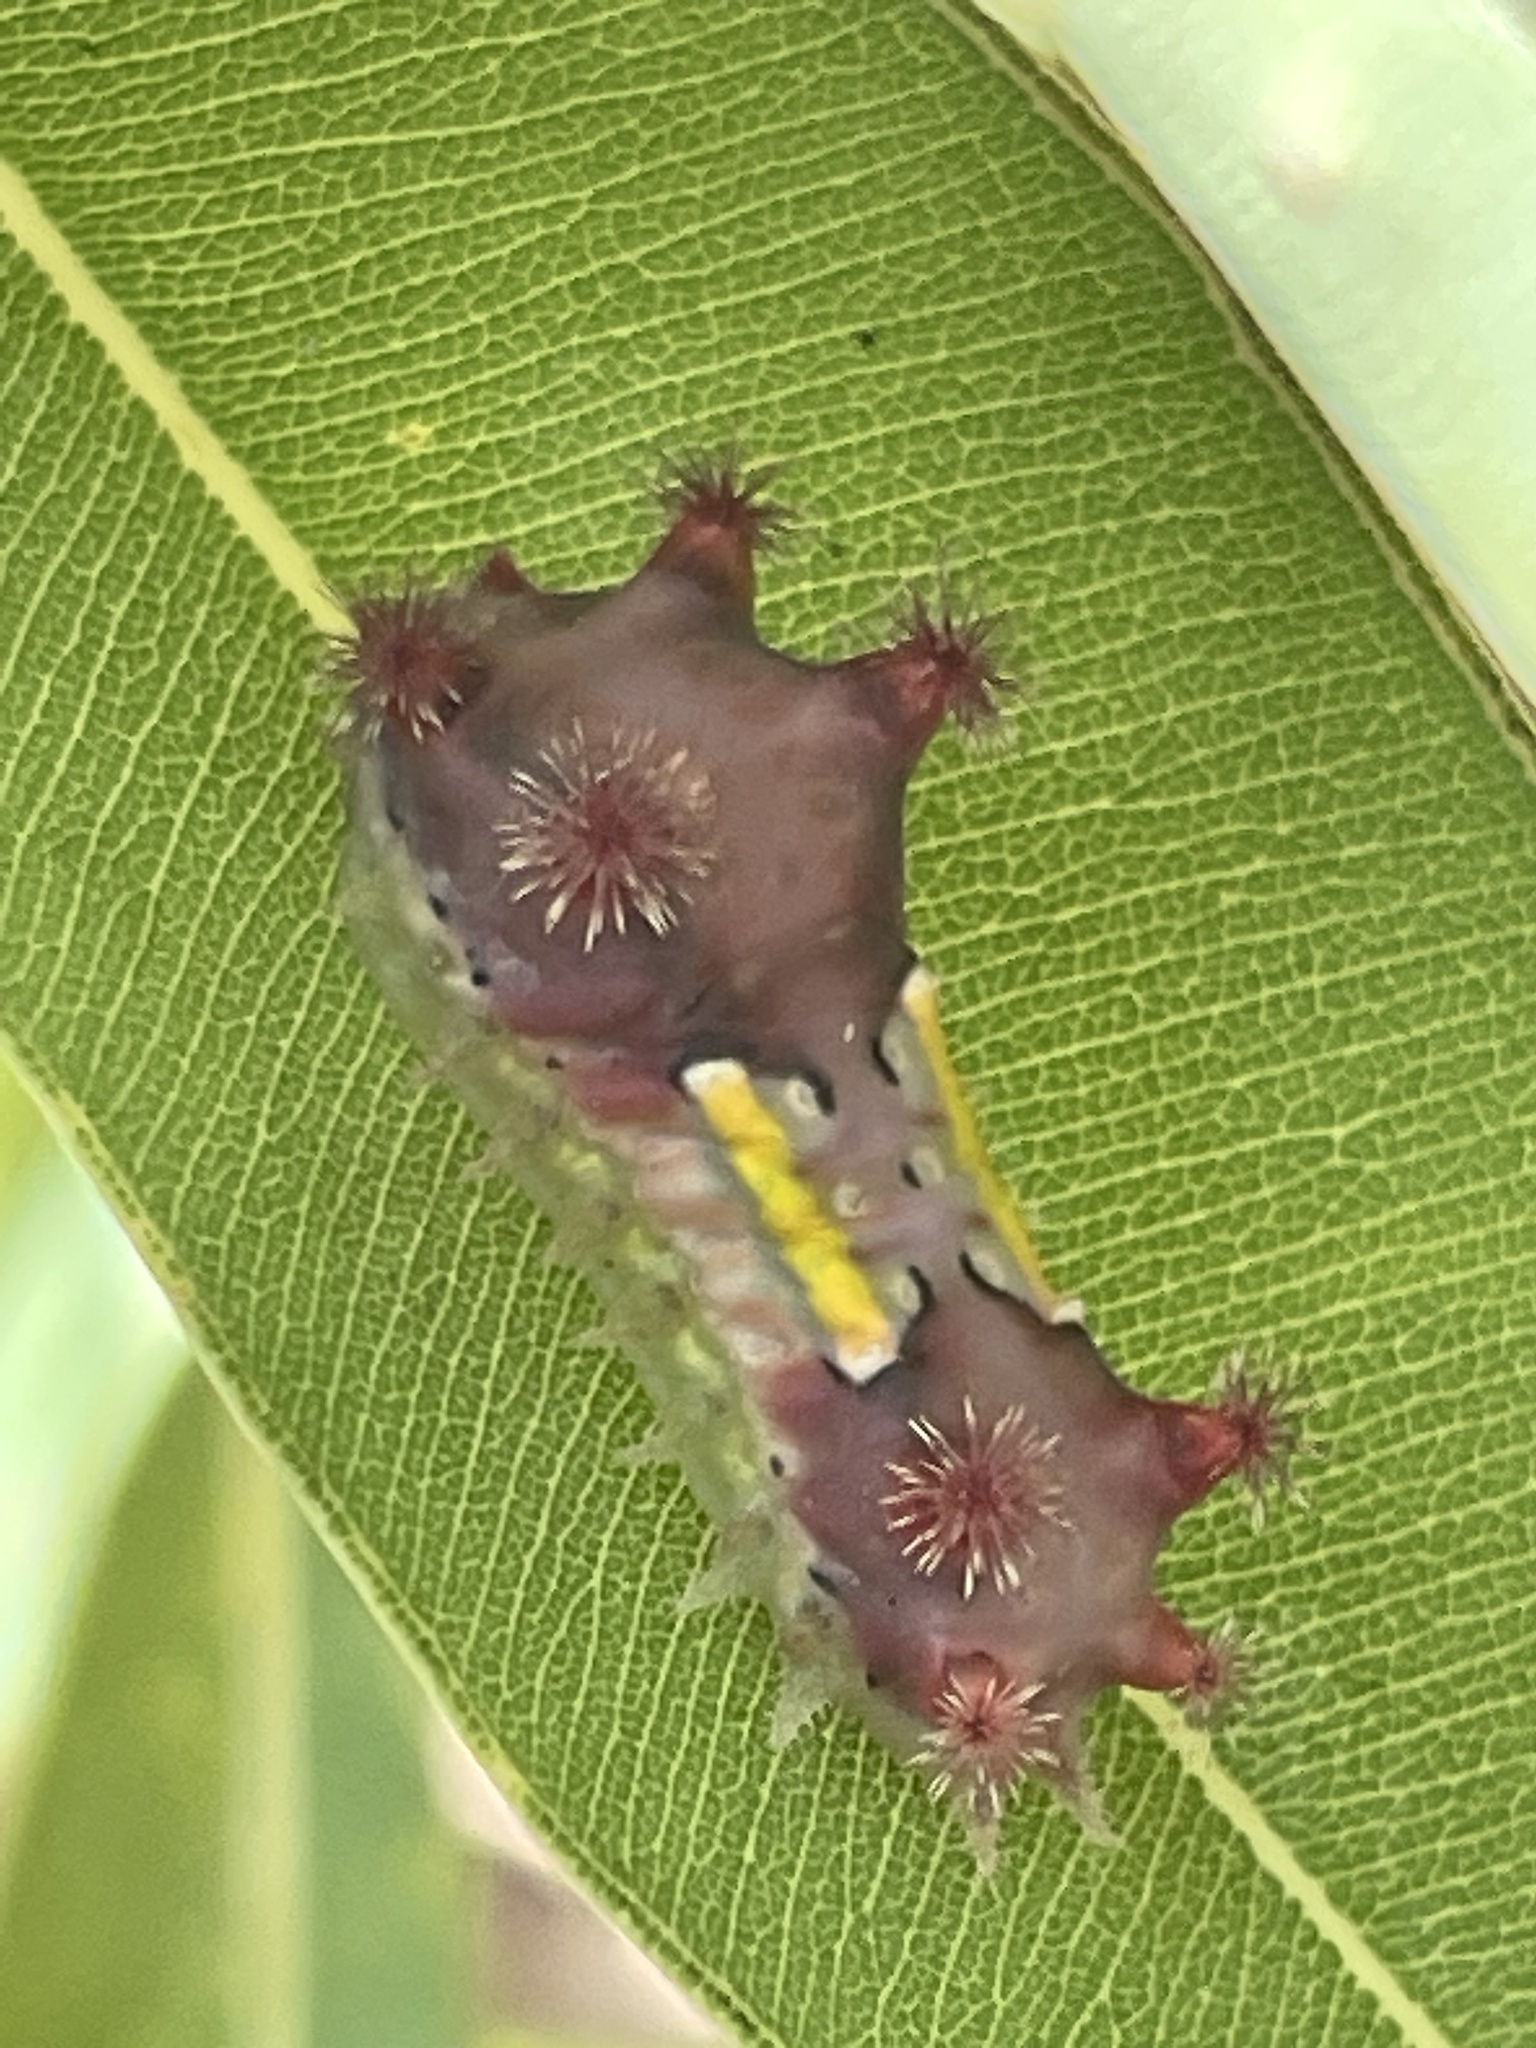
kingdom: Animalia
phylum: Arthropoda
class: Insecta
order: Lepidoptera
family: Limacodidae
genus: Doratifera
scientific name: Doratifera vulnerans
